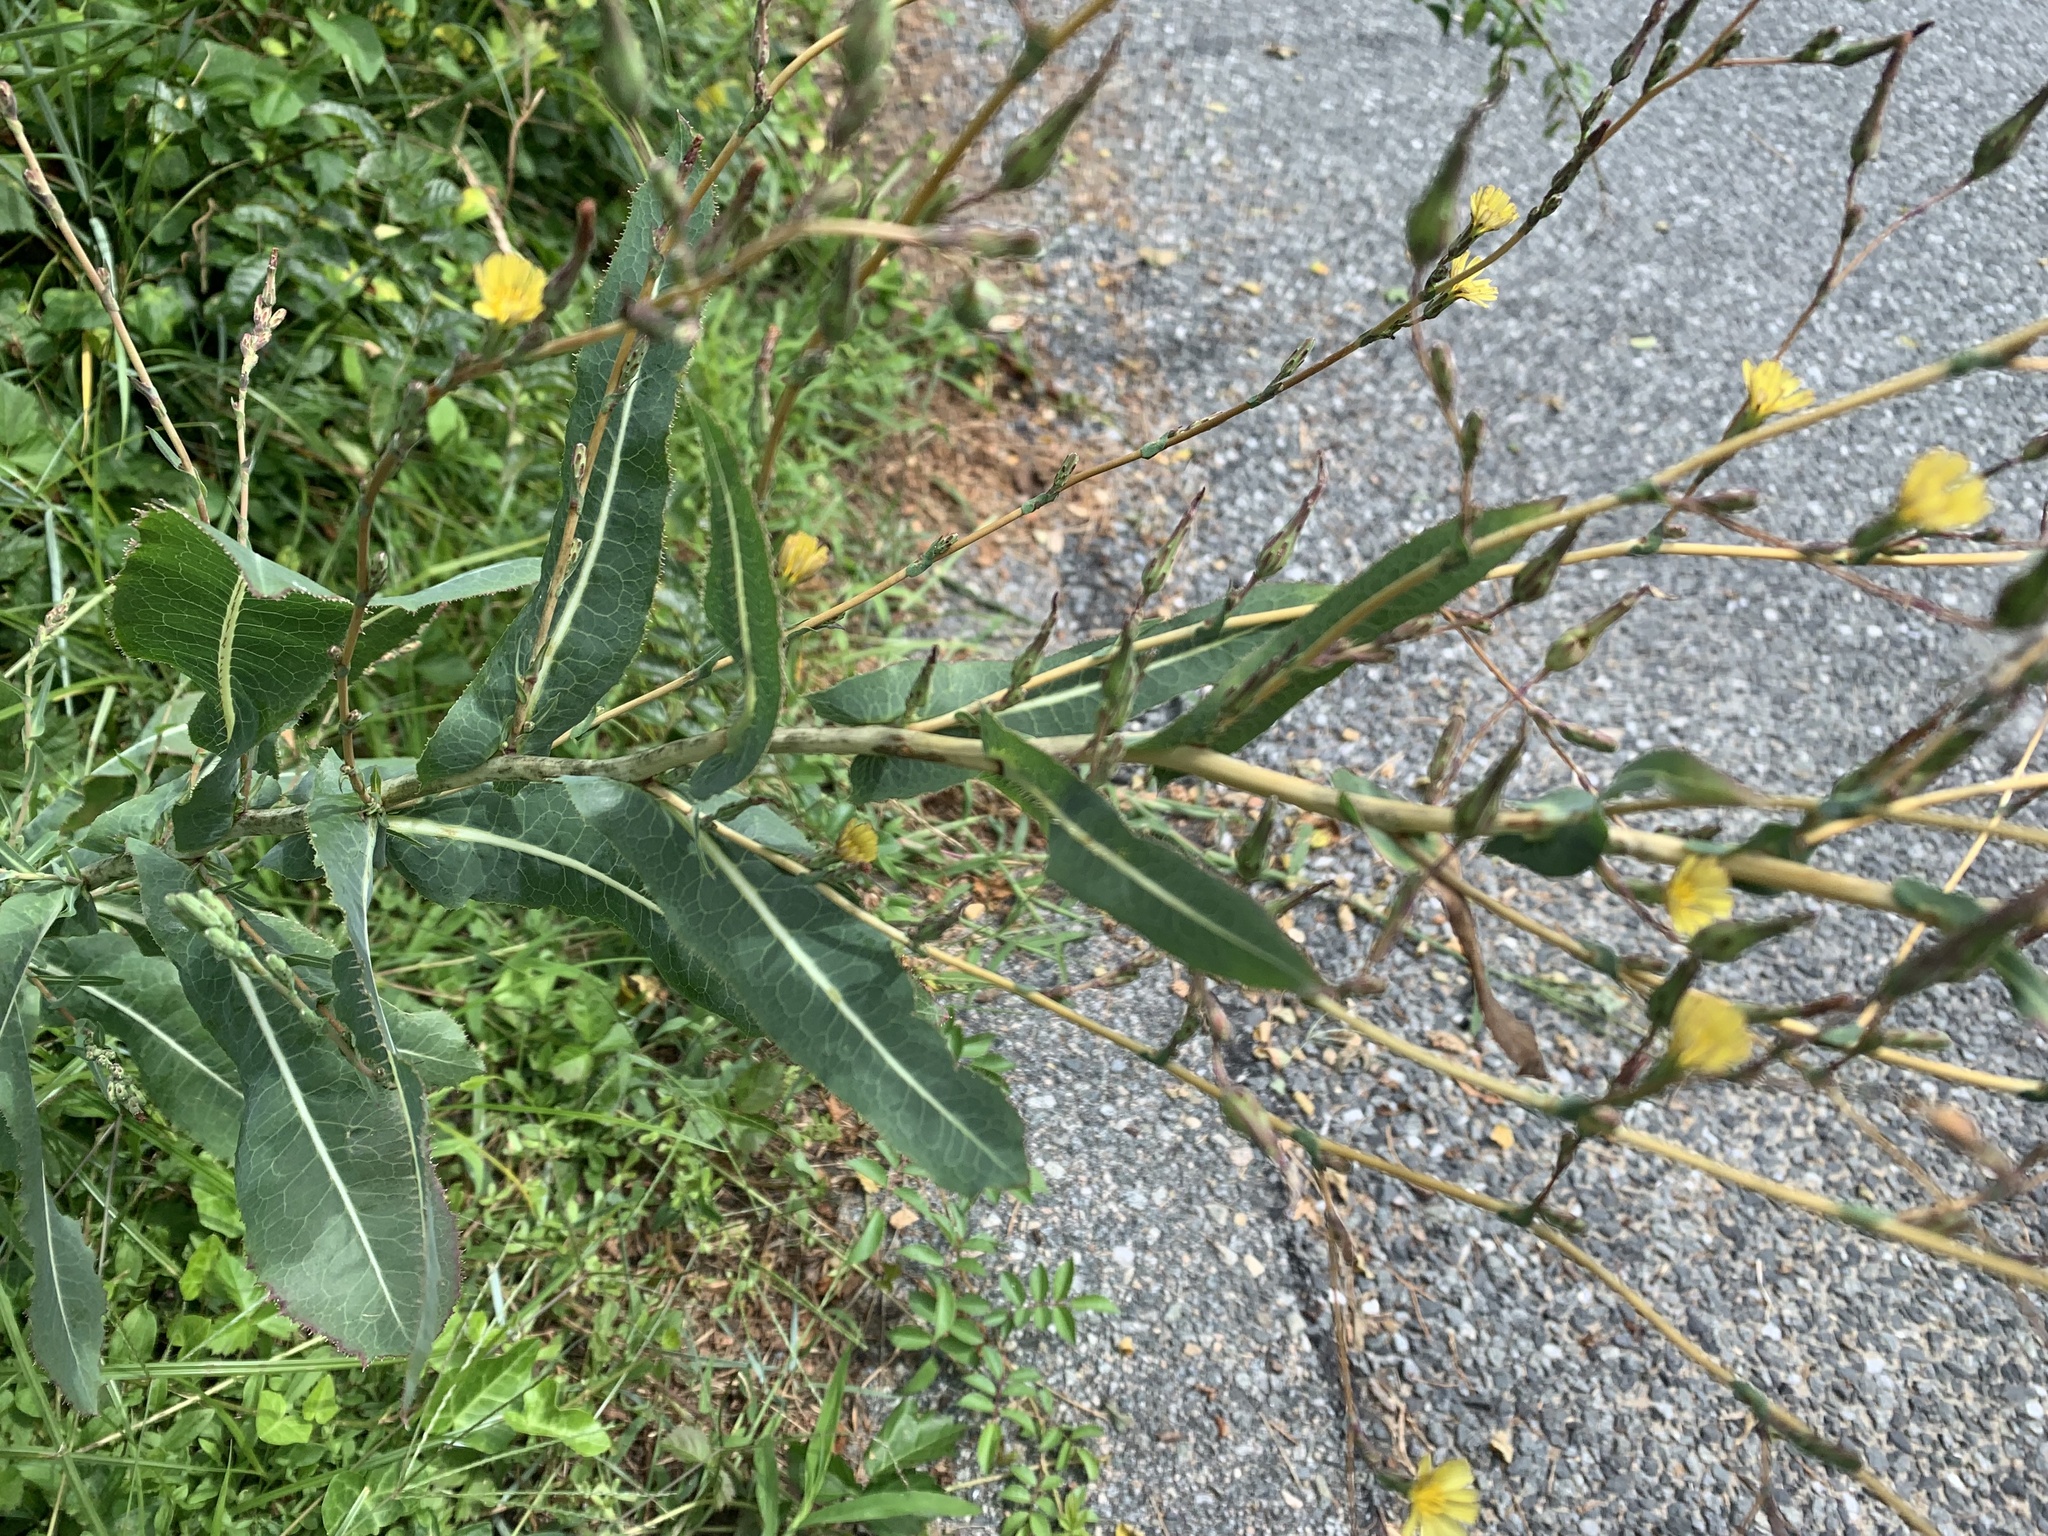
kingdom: Plantae
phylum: Tracheophyta
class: Magnoliopsida
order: Asterales
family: Asteraceae
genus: Lactuca
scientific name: Lactuca serriola
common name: Prickly lettuce
